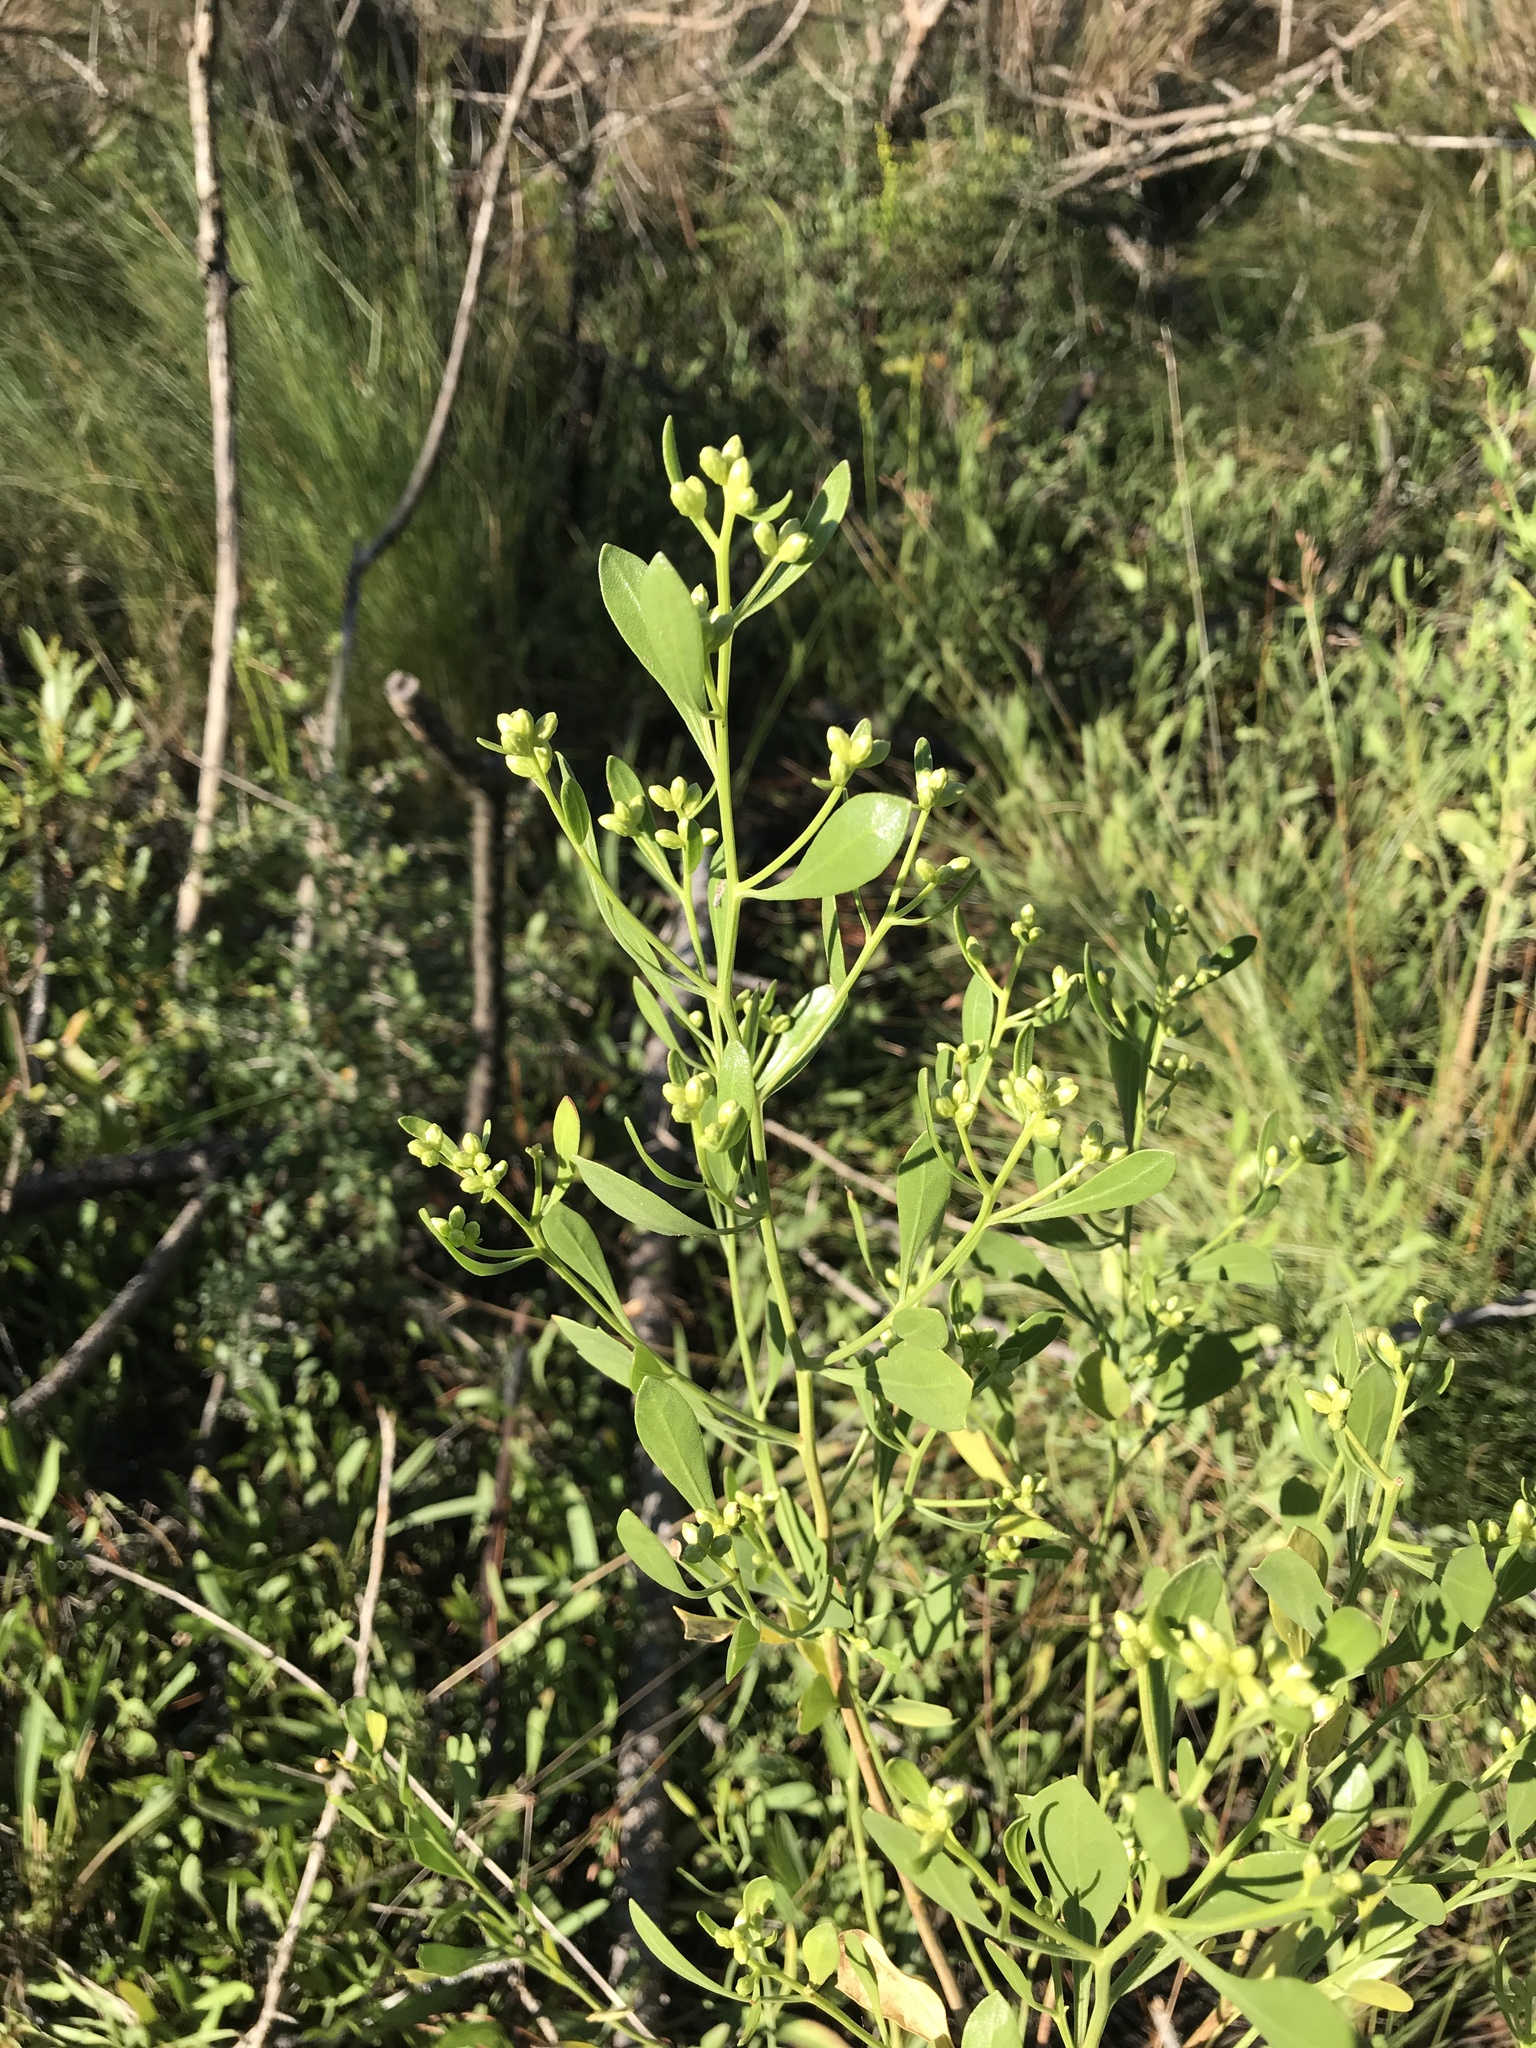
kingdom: Plantae
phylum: Tracheophyta
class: Magnoliopsida
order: Asterales
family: Asteraceae
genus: Baccharis
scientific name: Baccharis halimifolia
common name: Eastern baccharis
